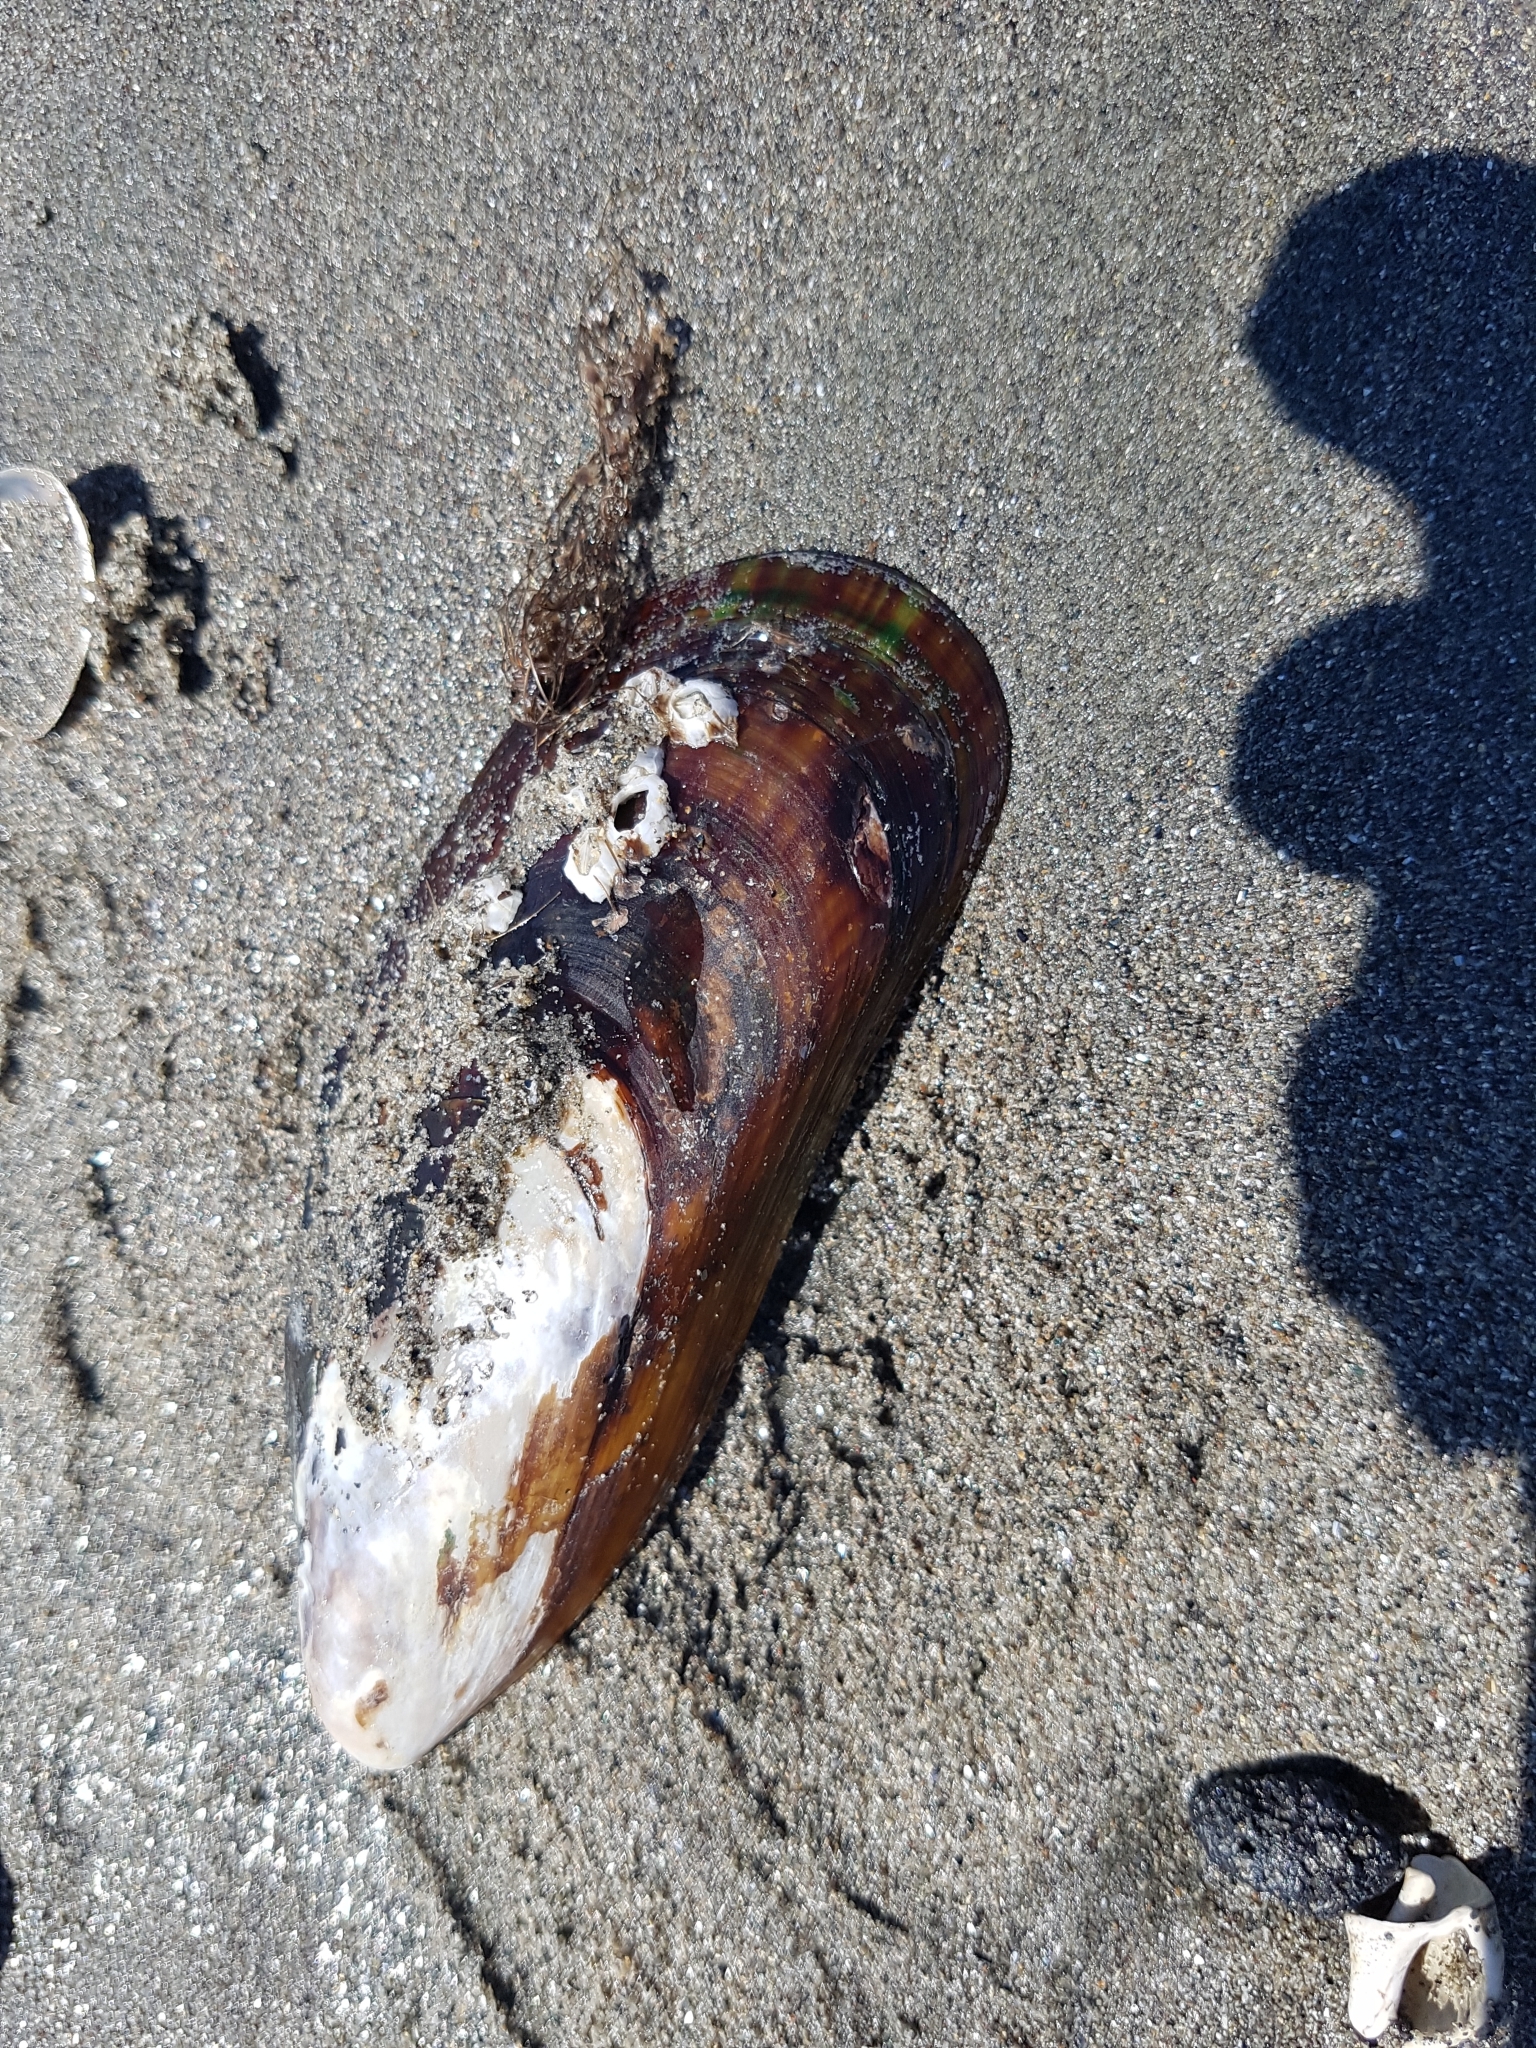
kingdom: Animalia
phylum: Mollusca
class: Bivalvia
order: Mytilida
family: Mytilidae
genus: Perna
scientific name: Perna canaliculus
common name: New zealand greenshelltm
